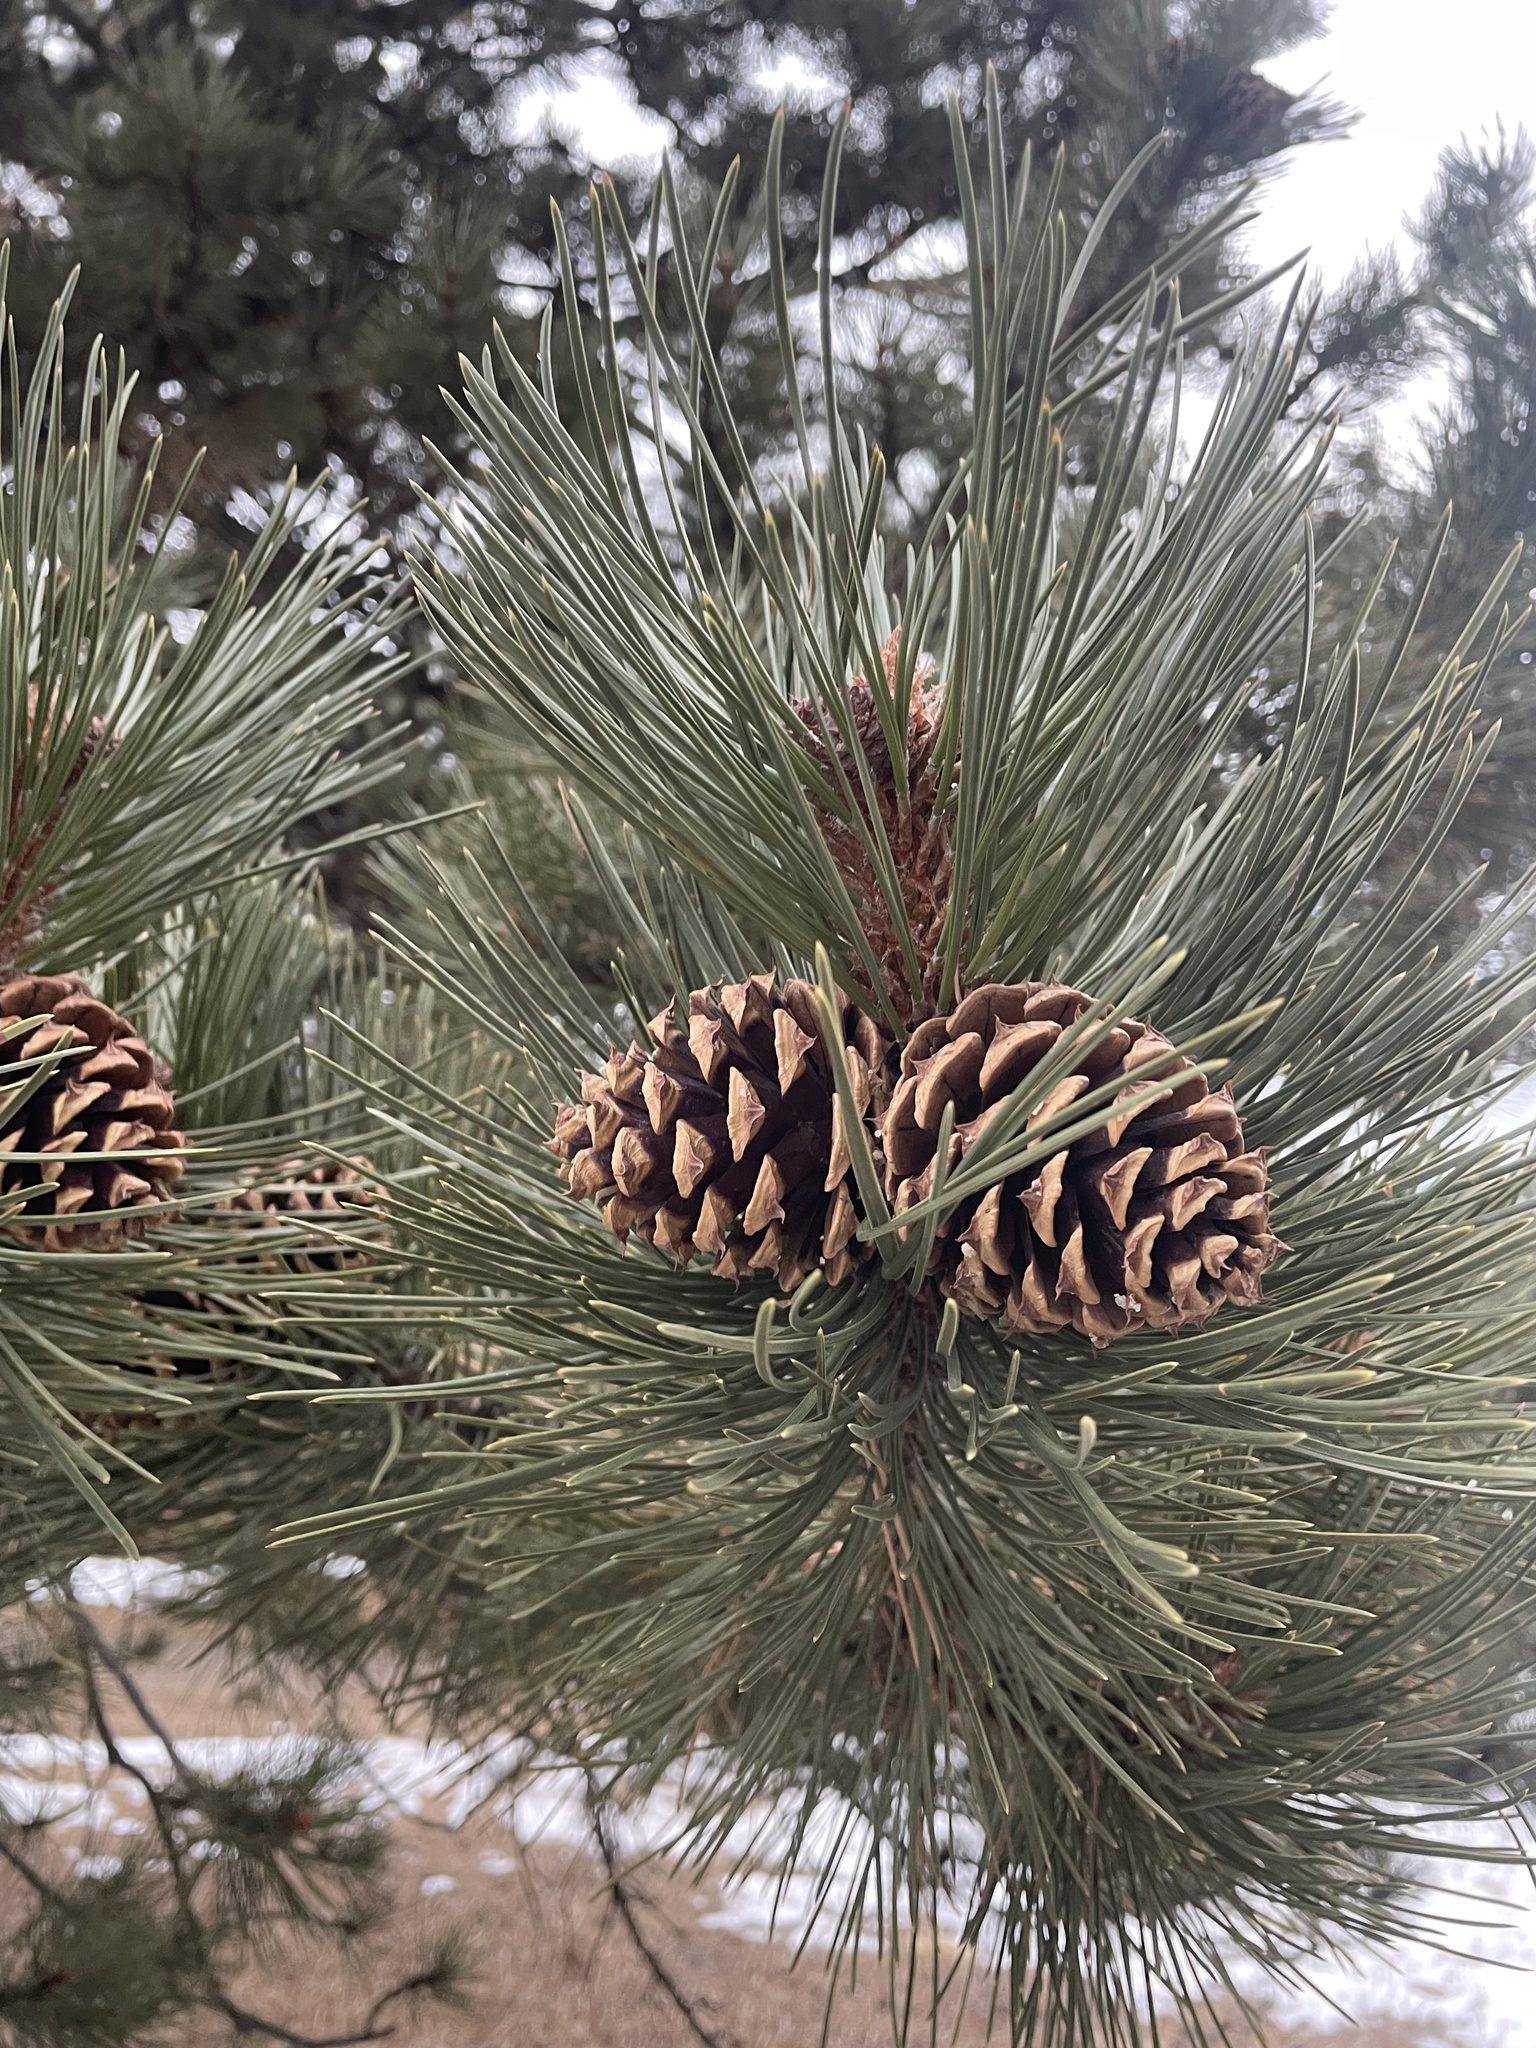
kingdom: Plantae
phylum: Tracheophyta
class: Pinopsida
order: Pinales
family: Pinaceae
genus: Pinus
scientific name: Pinus ponderosa
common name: Western yellow-pine
